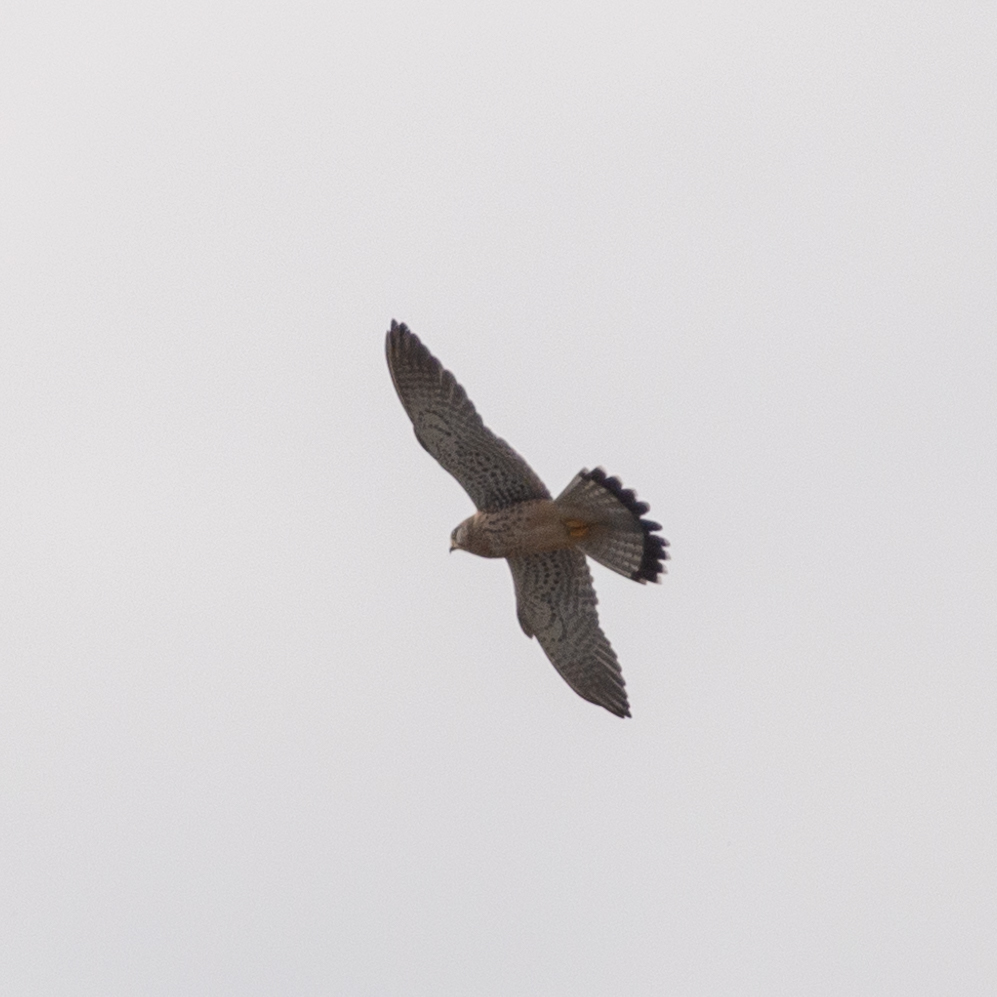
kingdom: Animalia
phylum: Chordata
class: Aves
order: Falconiformes
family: Falconidae
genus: Falco
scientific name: Falco tinnunculus
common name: Common kestrel
